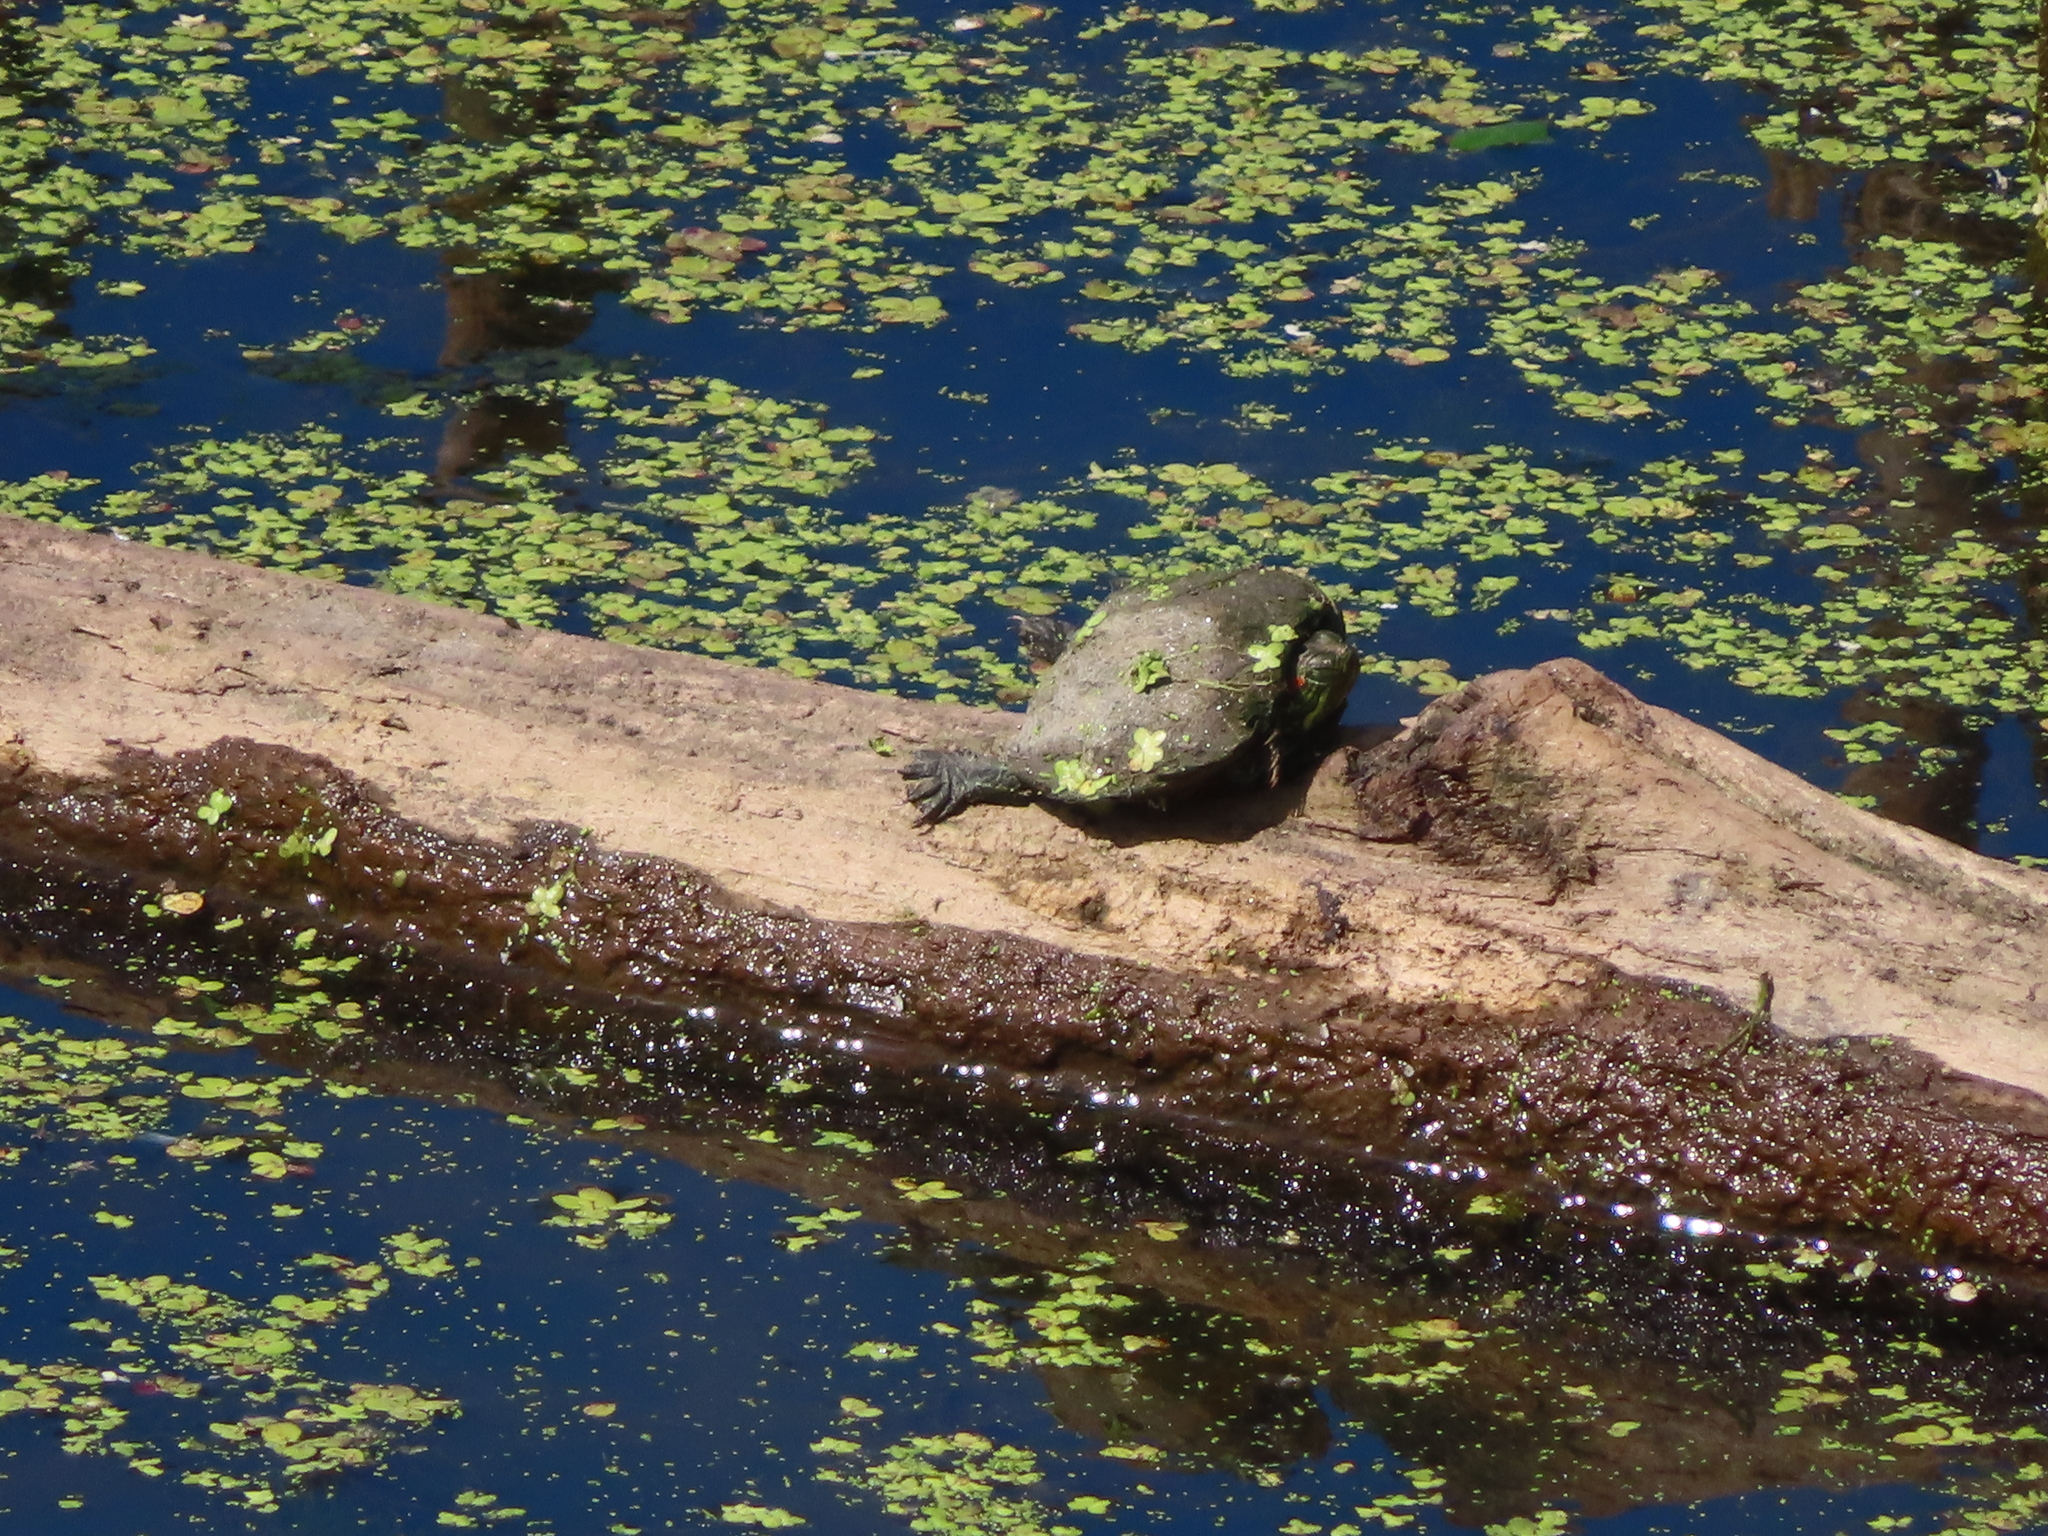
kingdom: Animalia
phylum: Chordata
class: Testudines
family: Emydidae
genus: Trachemys
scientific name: Trachemys scripta
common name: Slider
